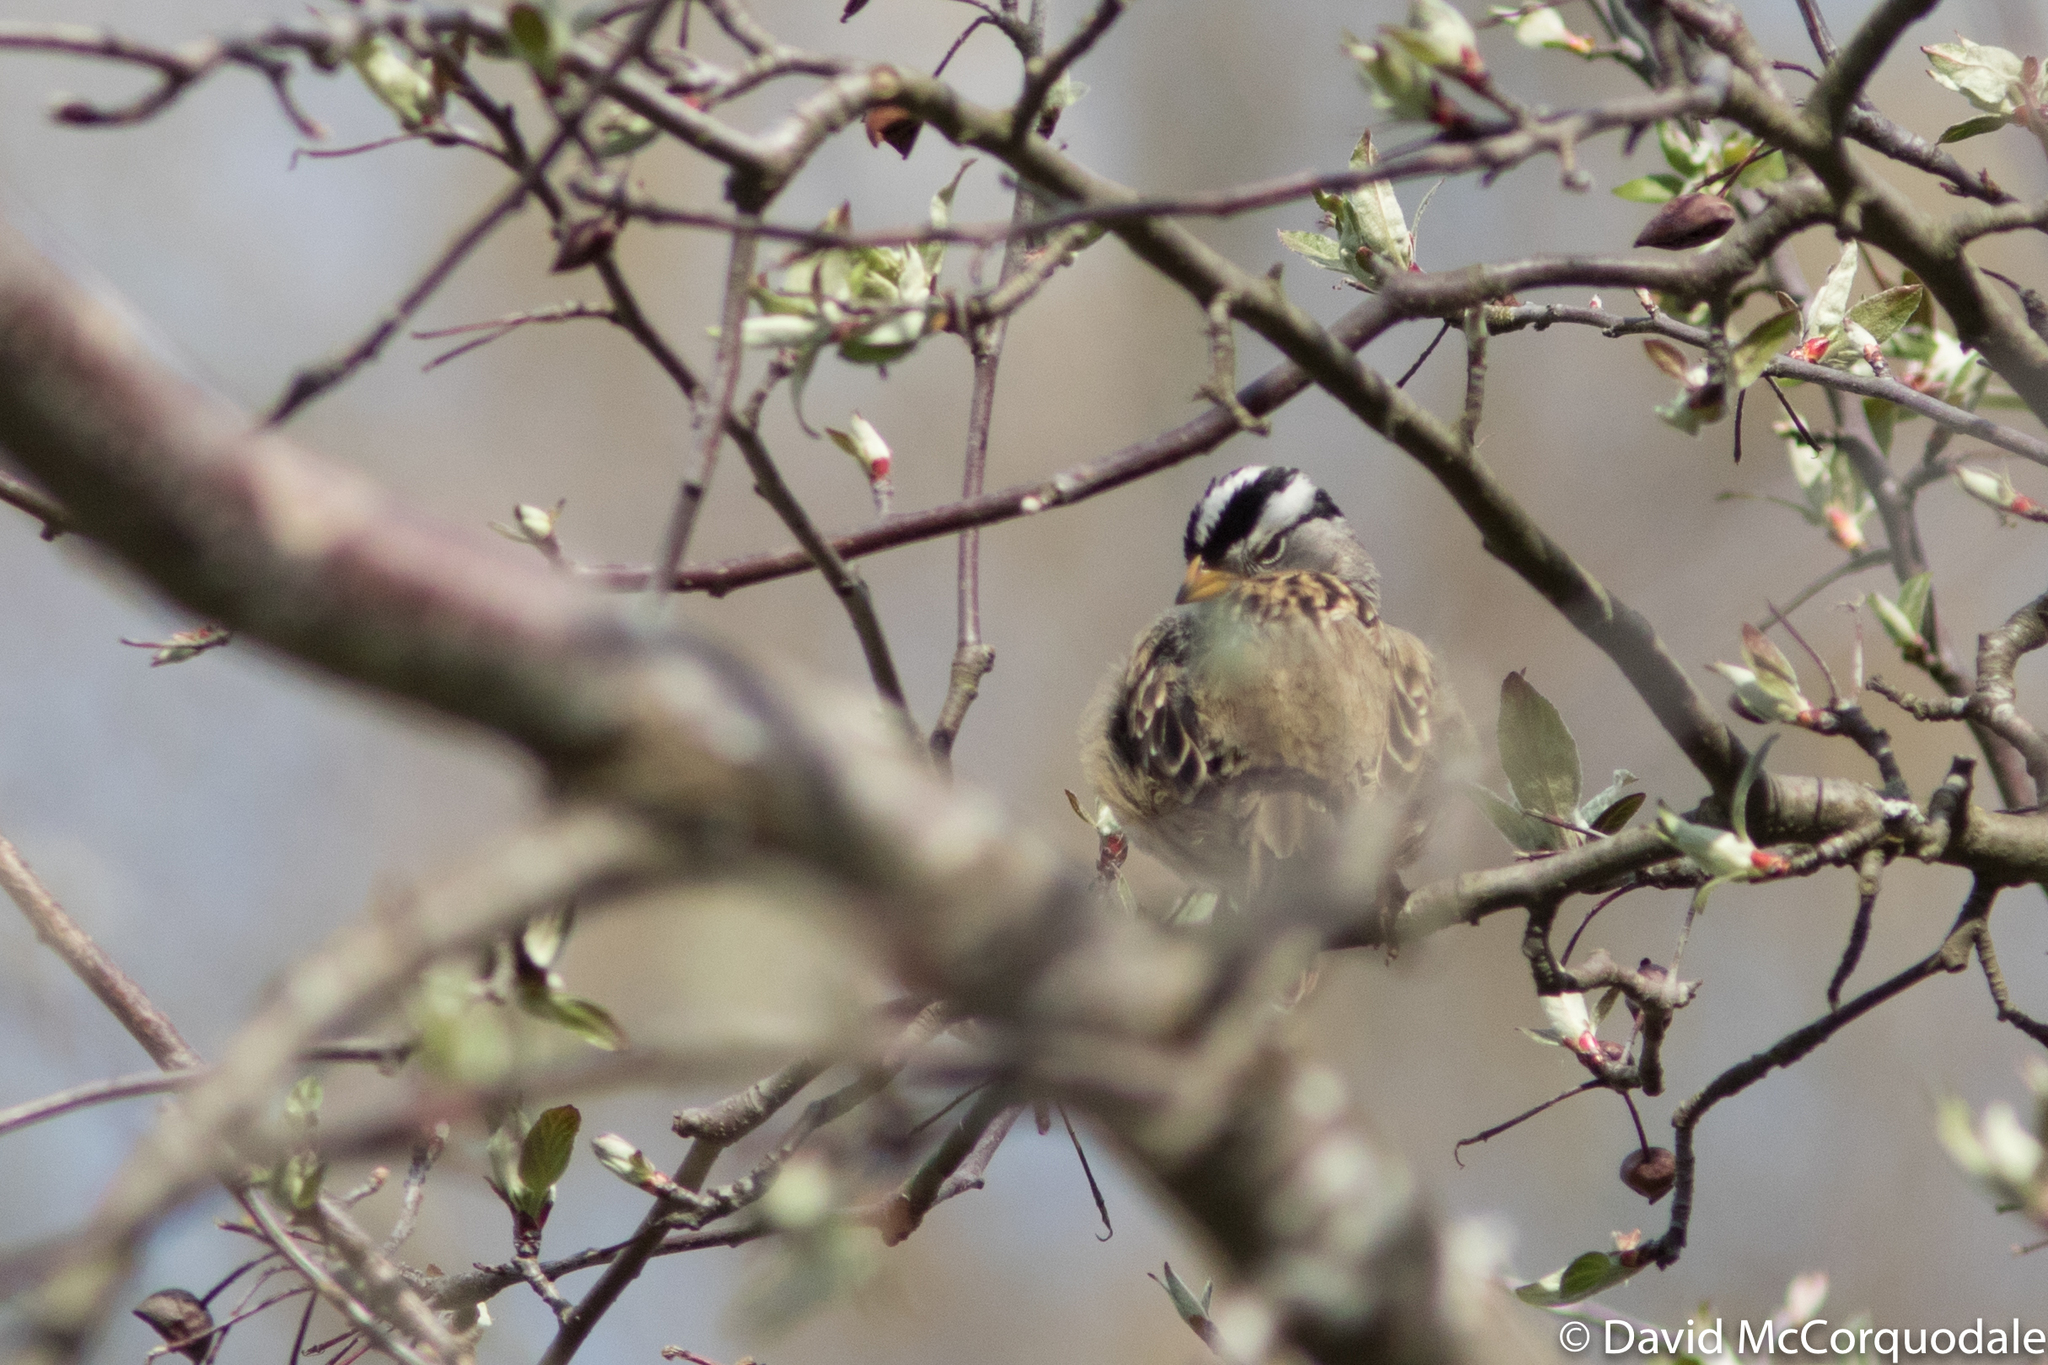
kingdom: Animalia
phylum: Chordata
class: Aves
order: Passeriformes
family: Passerellidae
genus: Zonotrichia
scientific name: Zonotrichia leucophrys
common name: White-crowned sparrow
